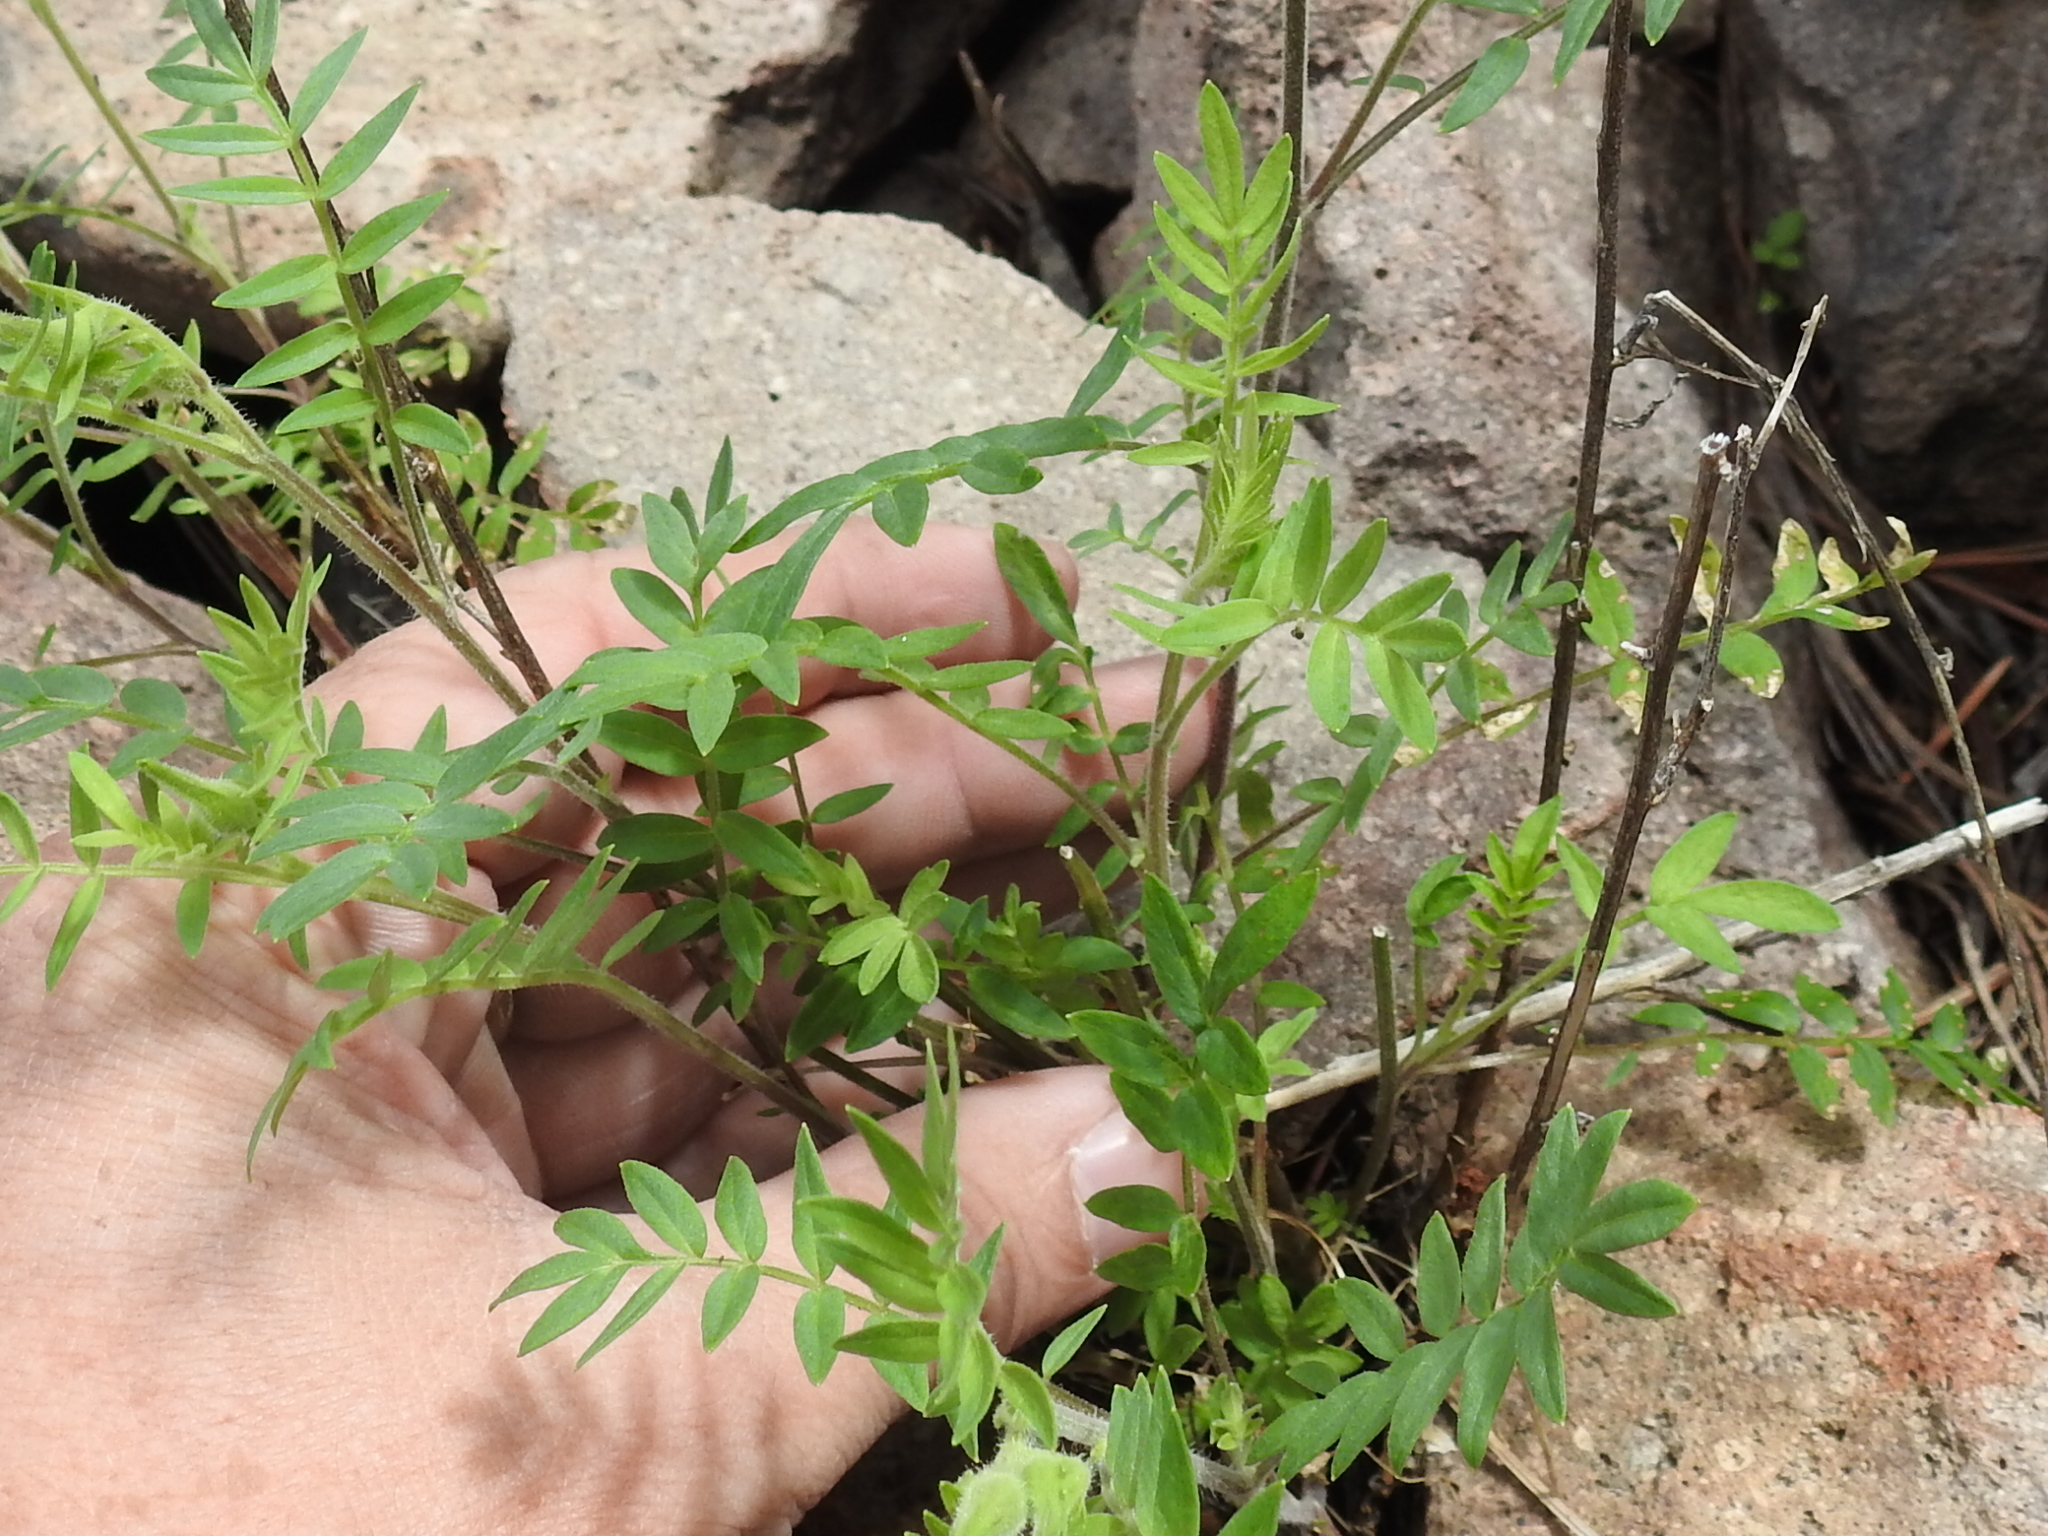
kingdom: Plantae
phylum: Tracheophyta
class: Magnoliopsida
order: Ericales
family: Polemoniaceae
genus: Polemonium
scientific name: Polemonium pauciflorum
